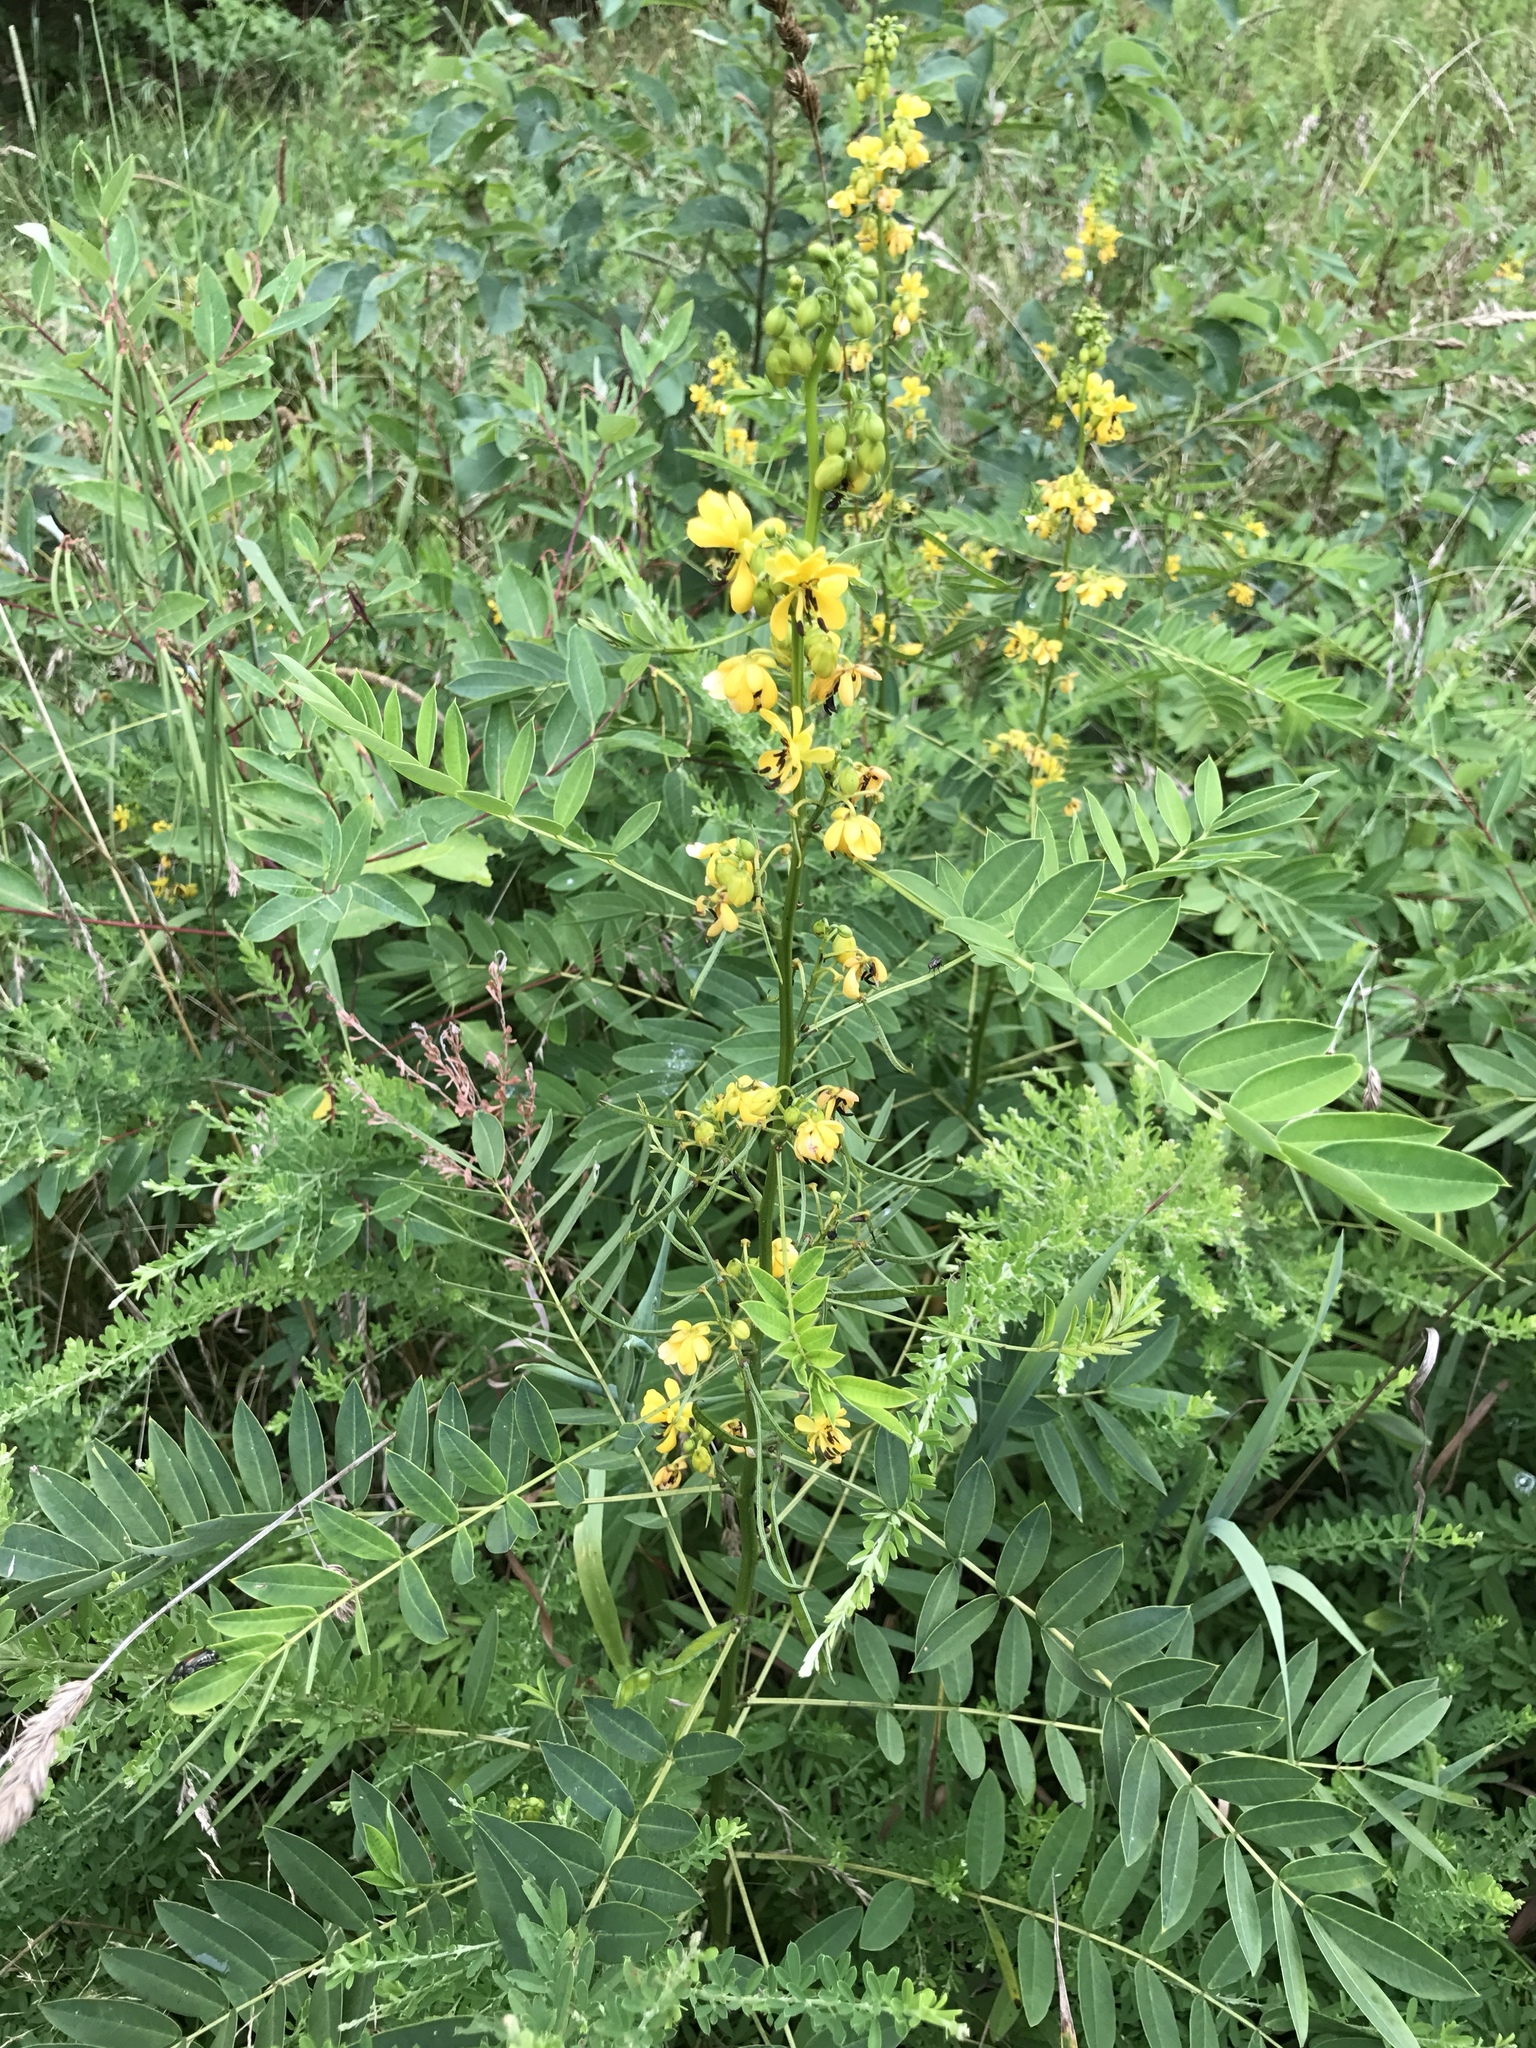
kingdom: Plantae
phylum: Tracheophyta
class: Magnoliopsida
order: Fabales
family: Fabaceae
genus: Senna
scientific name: Senna marilandica
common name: American senna
